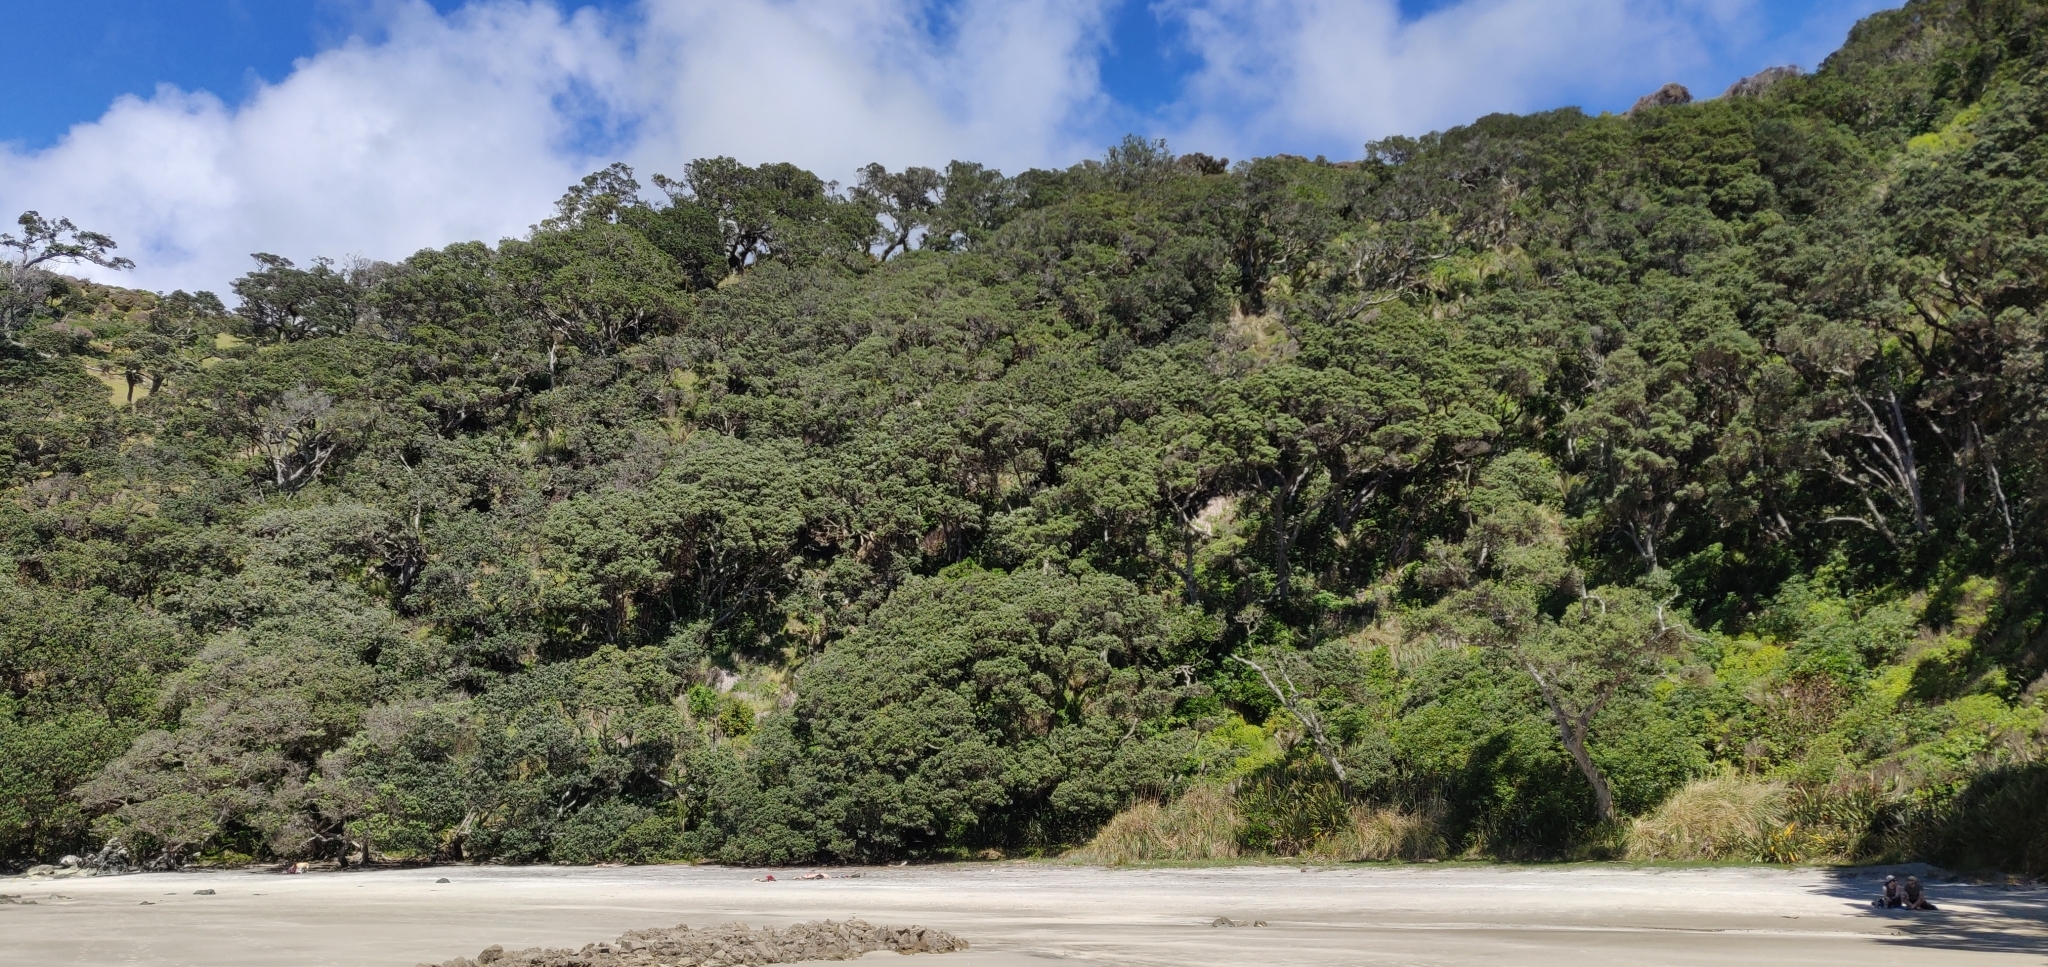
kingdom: Plantae
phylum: Tracheophyta
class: Magnoliopsida
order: Myrtales
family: Myrtaceae
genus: Metrosideros
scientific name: Metrosideros excelsa
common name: New zealand christmastree
